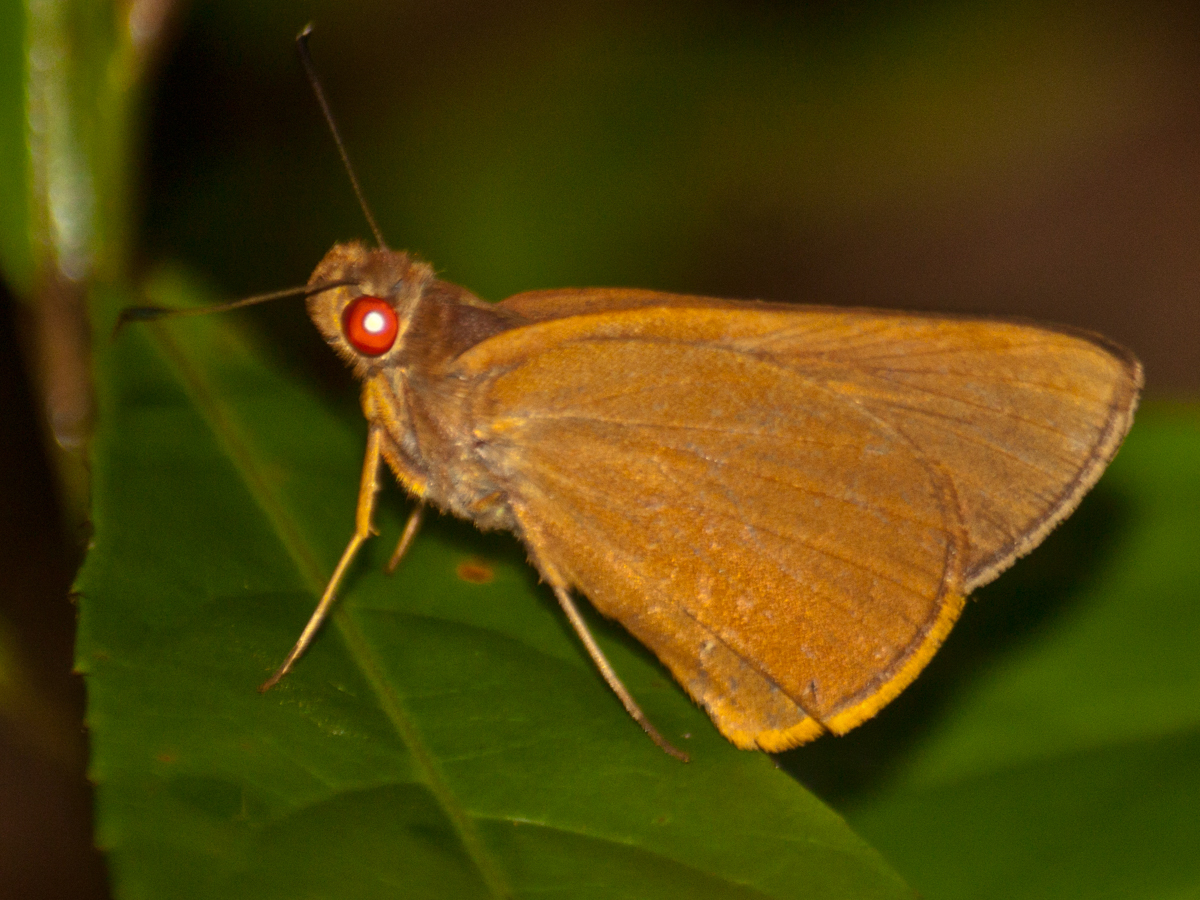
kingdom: Animalia
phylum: Arthropoda
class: Insecta
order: Lepidoptera
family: Hesperiidae
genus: Matapa
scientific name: Matapa druna
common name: Grey-brand redeye
